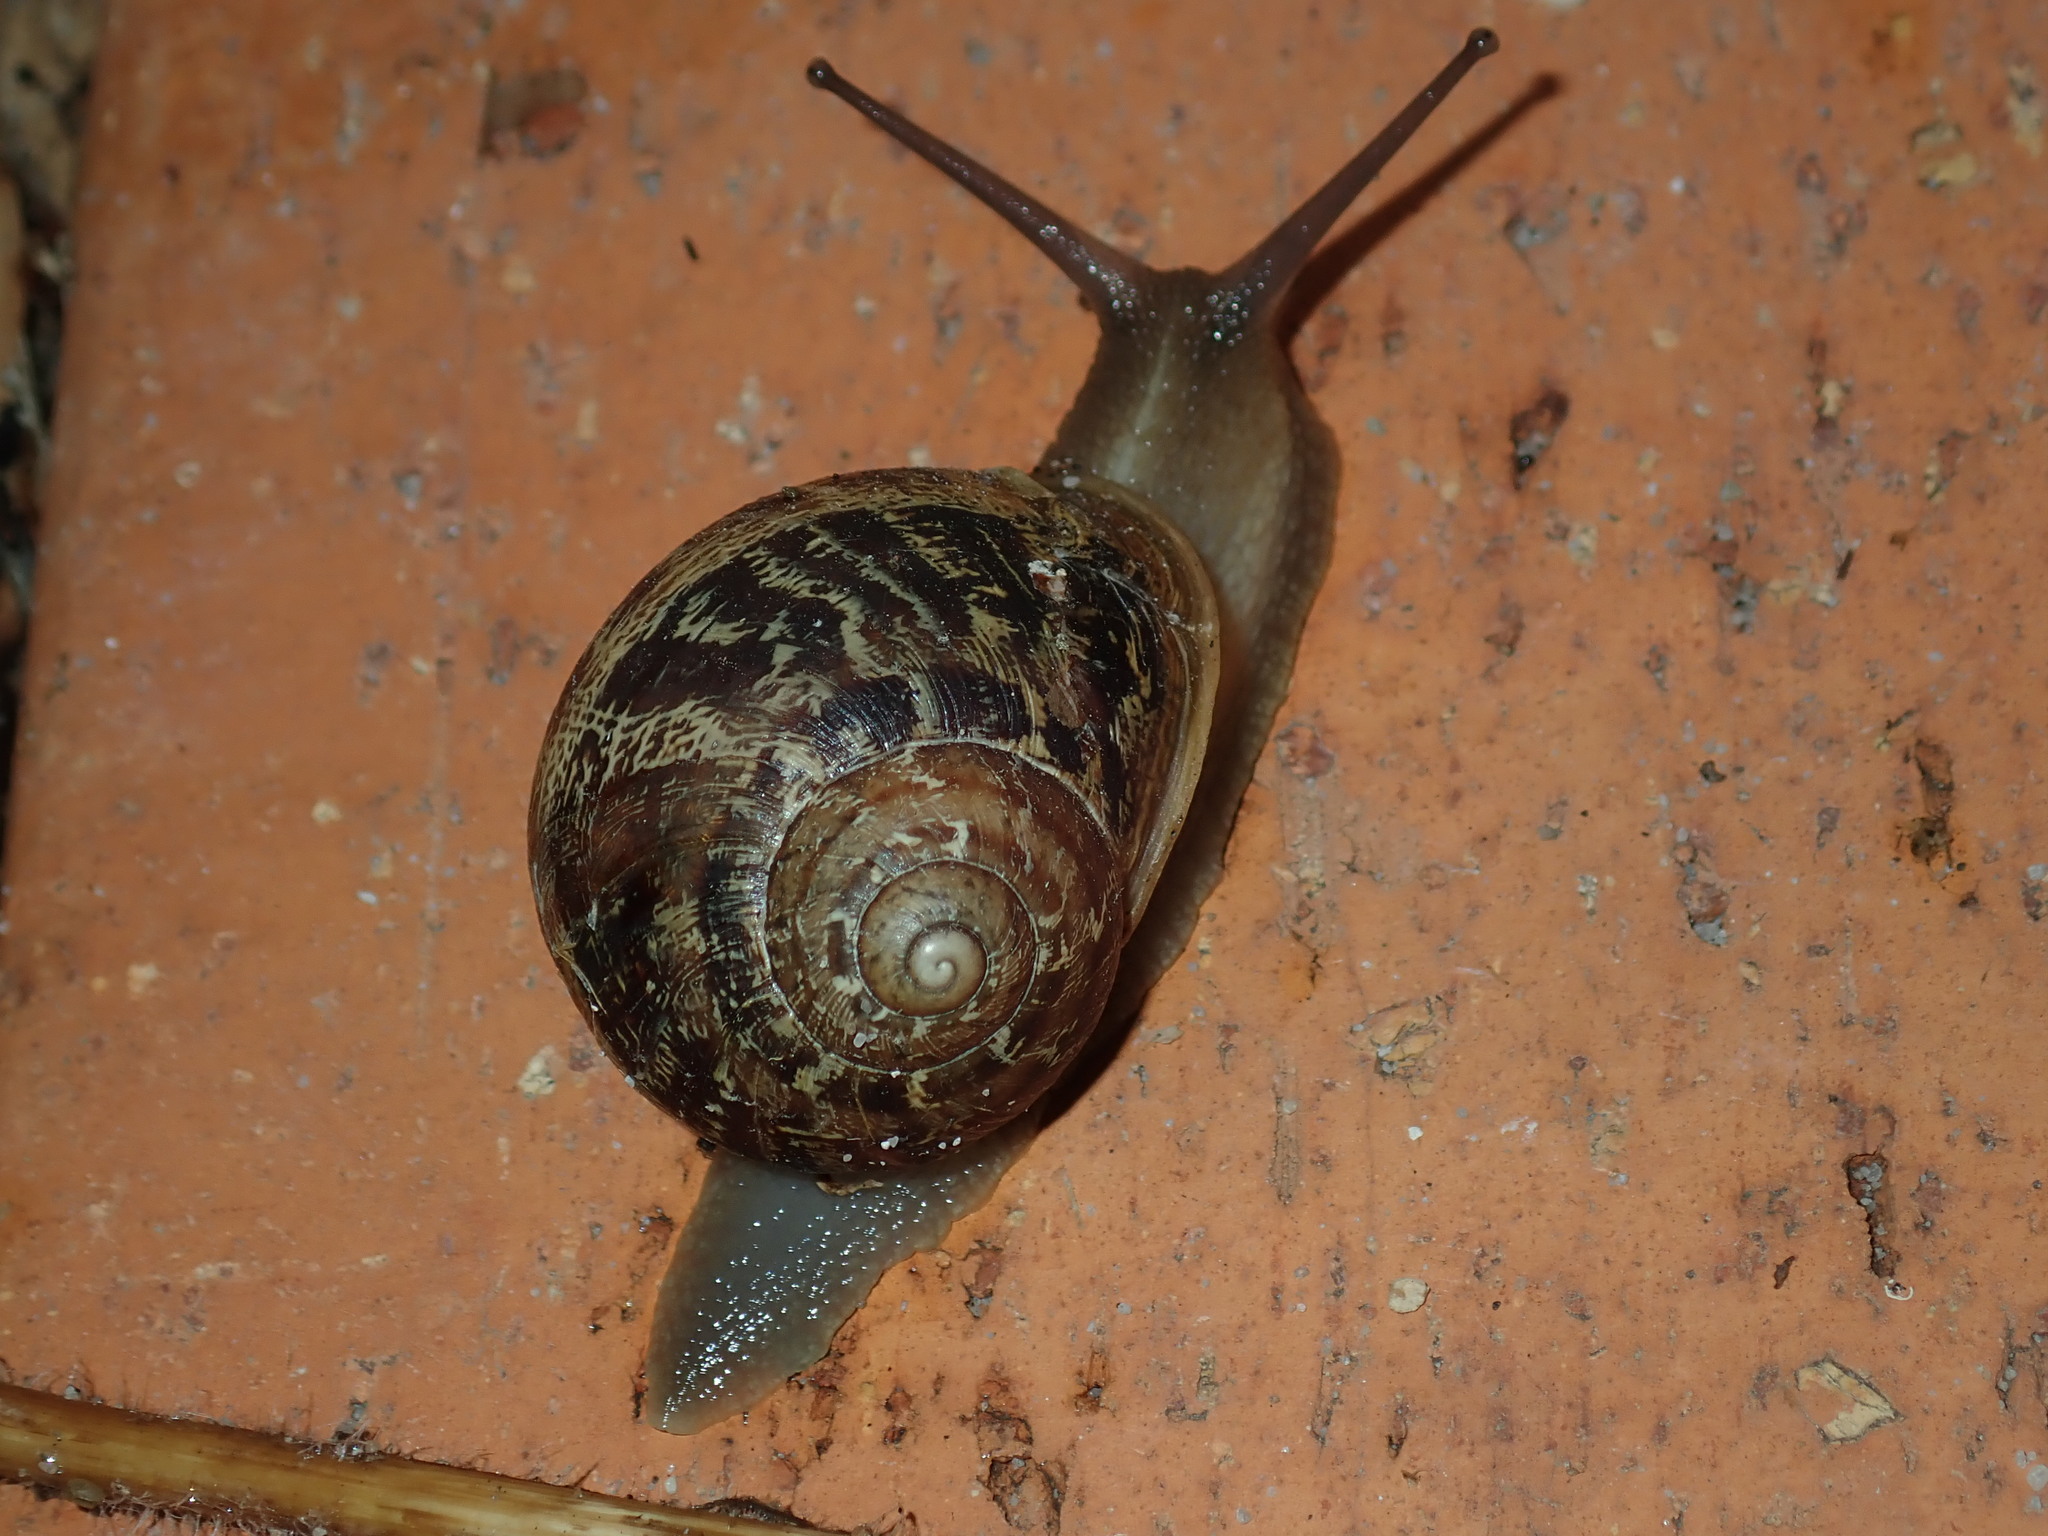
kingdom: Animalia
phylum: Mollusca
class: Gastropoda
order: Stylommatophora
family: Helicidae
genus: Cornu
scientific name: Cornu aspersum
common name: Brown garden snail
